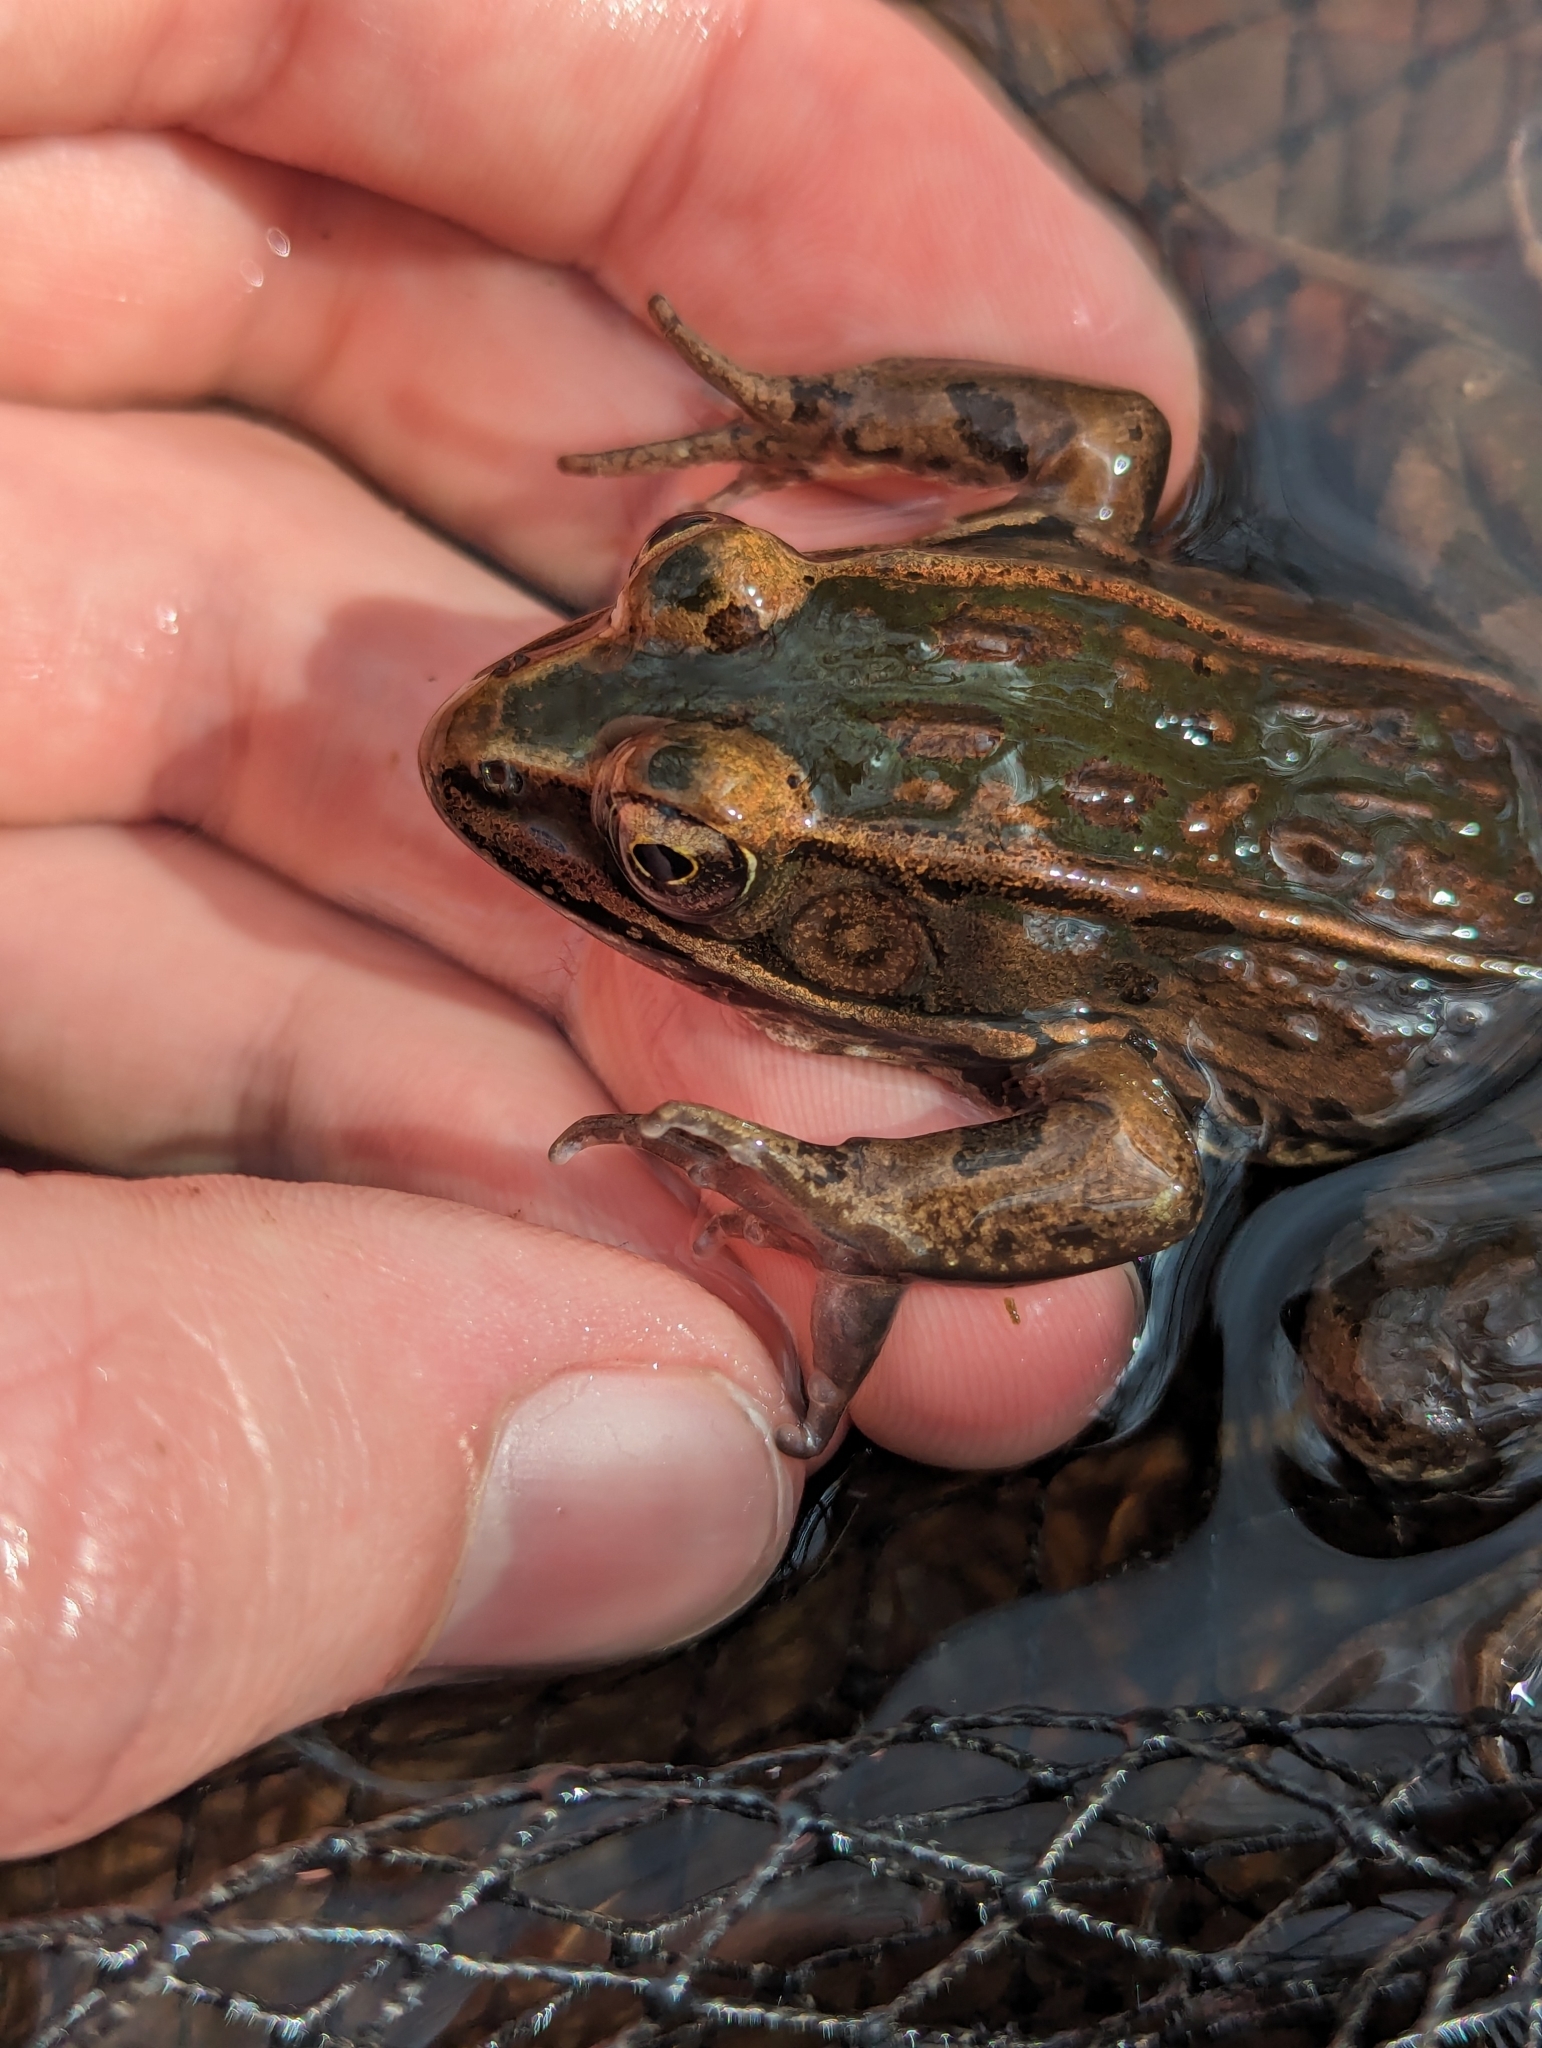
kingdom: Animalia
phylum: Chordata
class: Amphibia
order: Anura
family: Ranidae
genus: Lithobates
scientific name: Lithobates sphenocephalus
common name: Southern leopard frog
